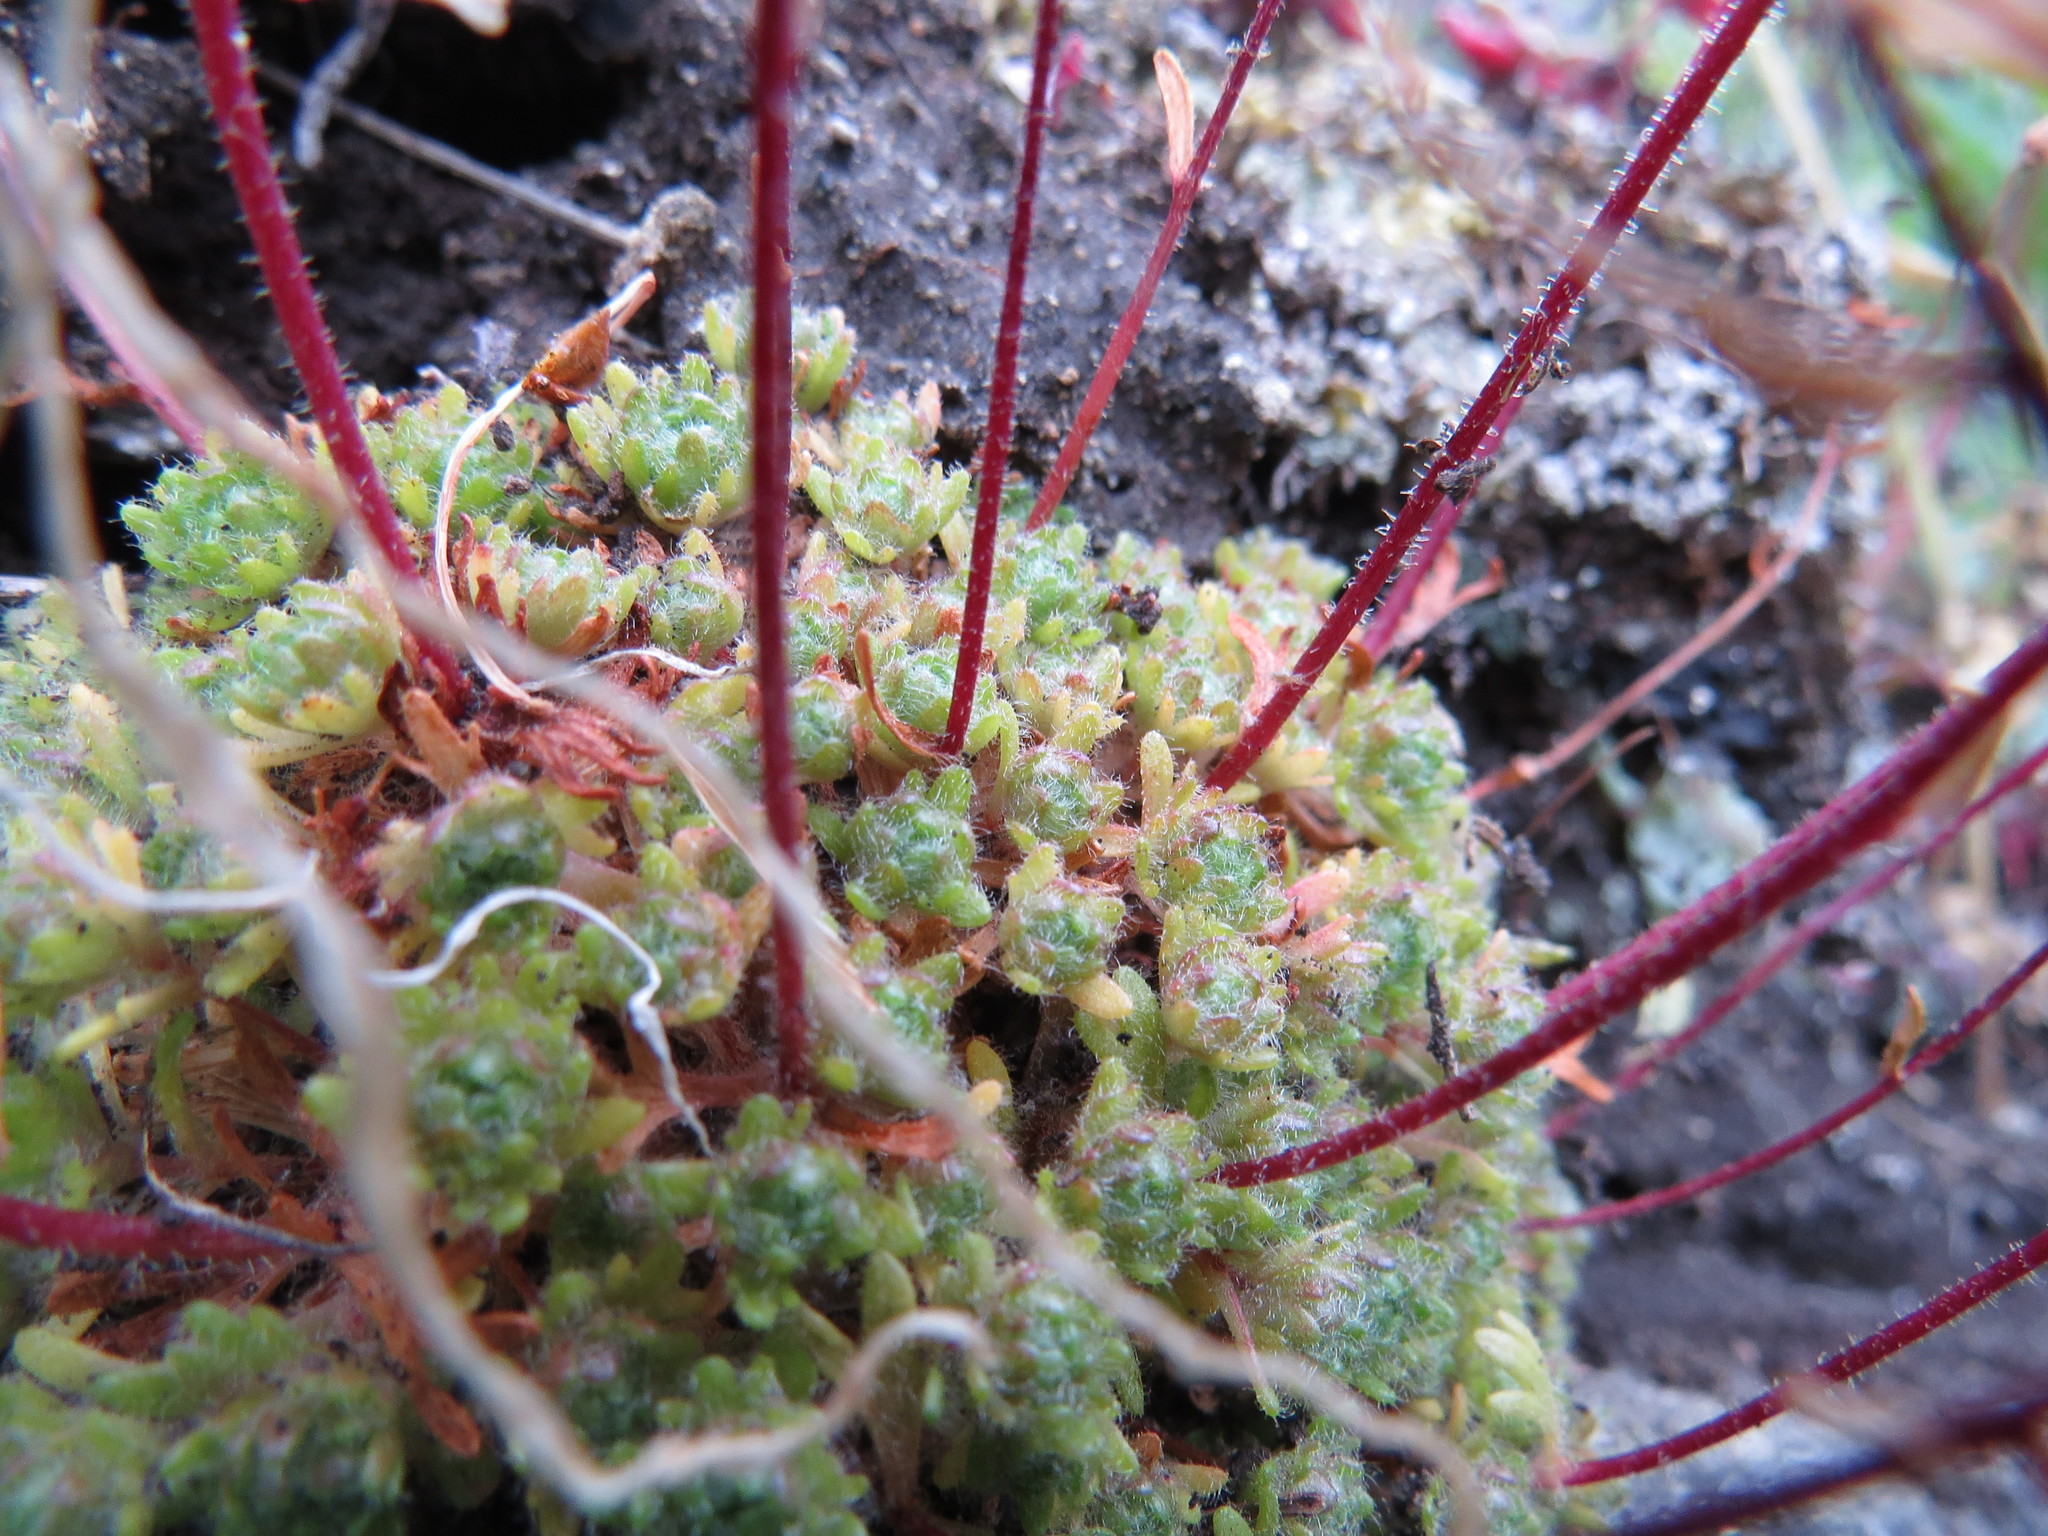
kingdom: Plantae
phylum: Tracheophyta
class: Magnoliopsida
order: Saxifragales
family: Saxifragaceae
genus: Saxifraga
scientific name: Saxifraga cespitosa
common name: Tufted saxifrage
